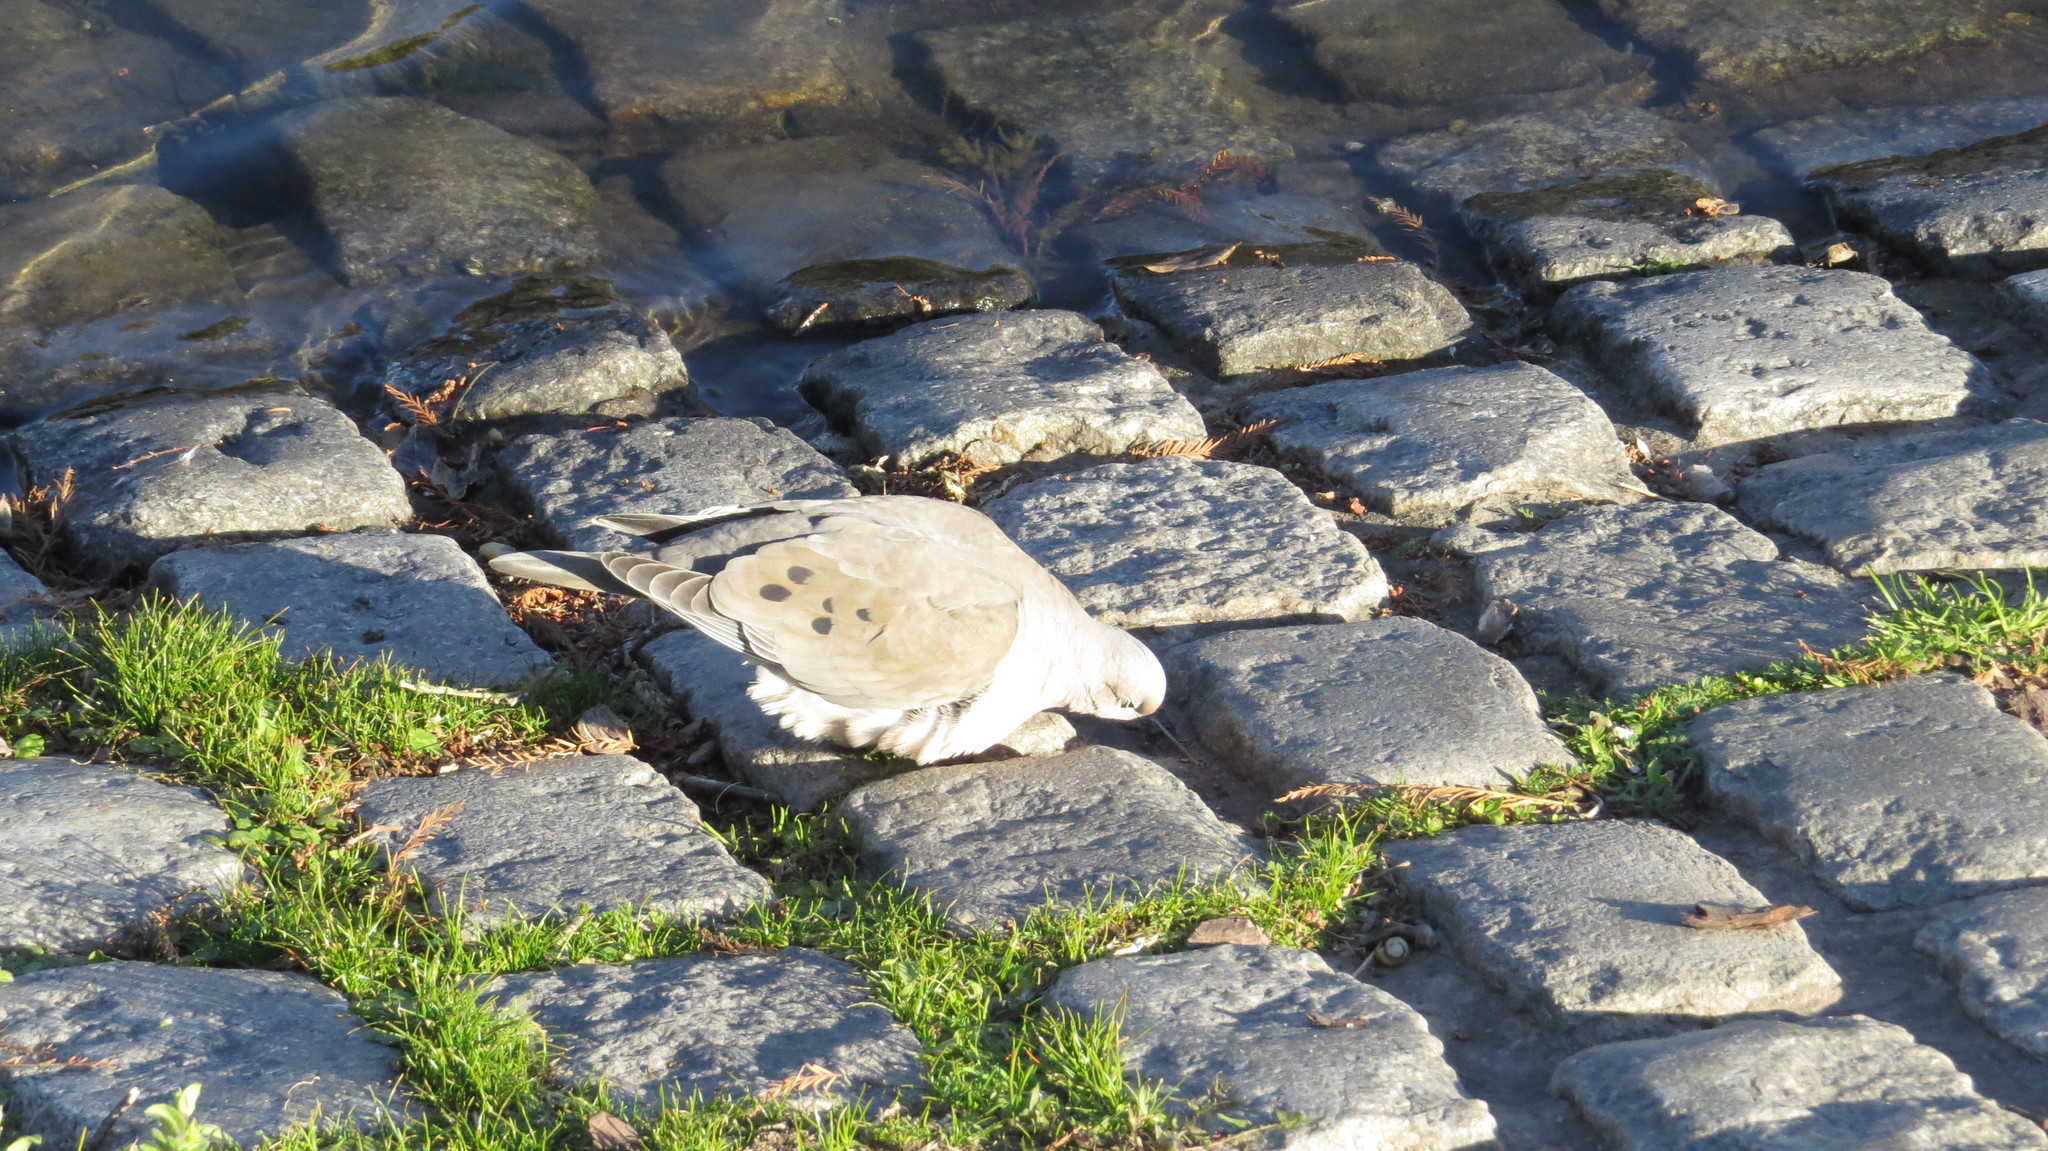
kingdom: Animalia
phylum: Chordata
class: Aves
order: Columbiformes
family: Columbidae
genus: Zenaida
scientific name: Zenaida auriculata
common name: Eared dove
